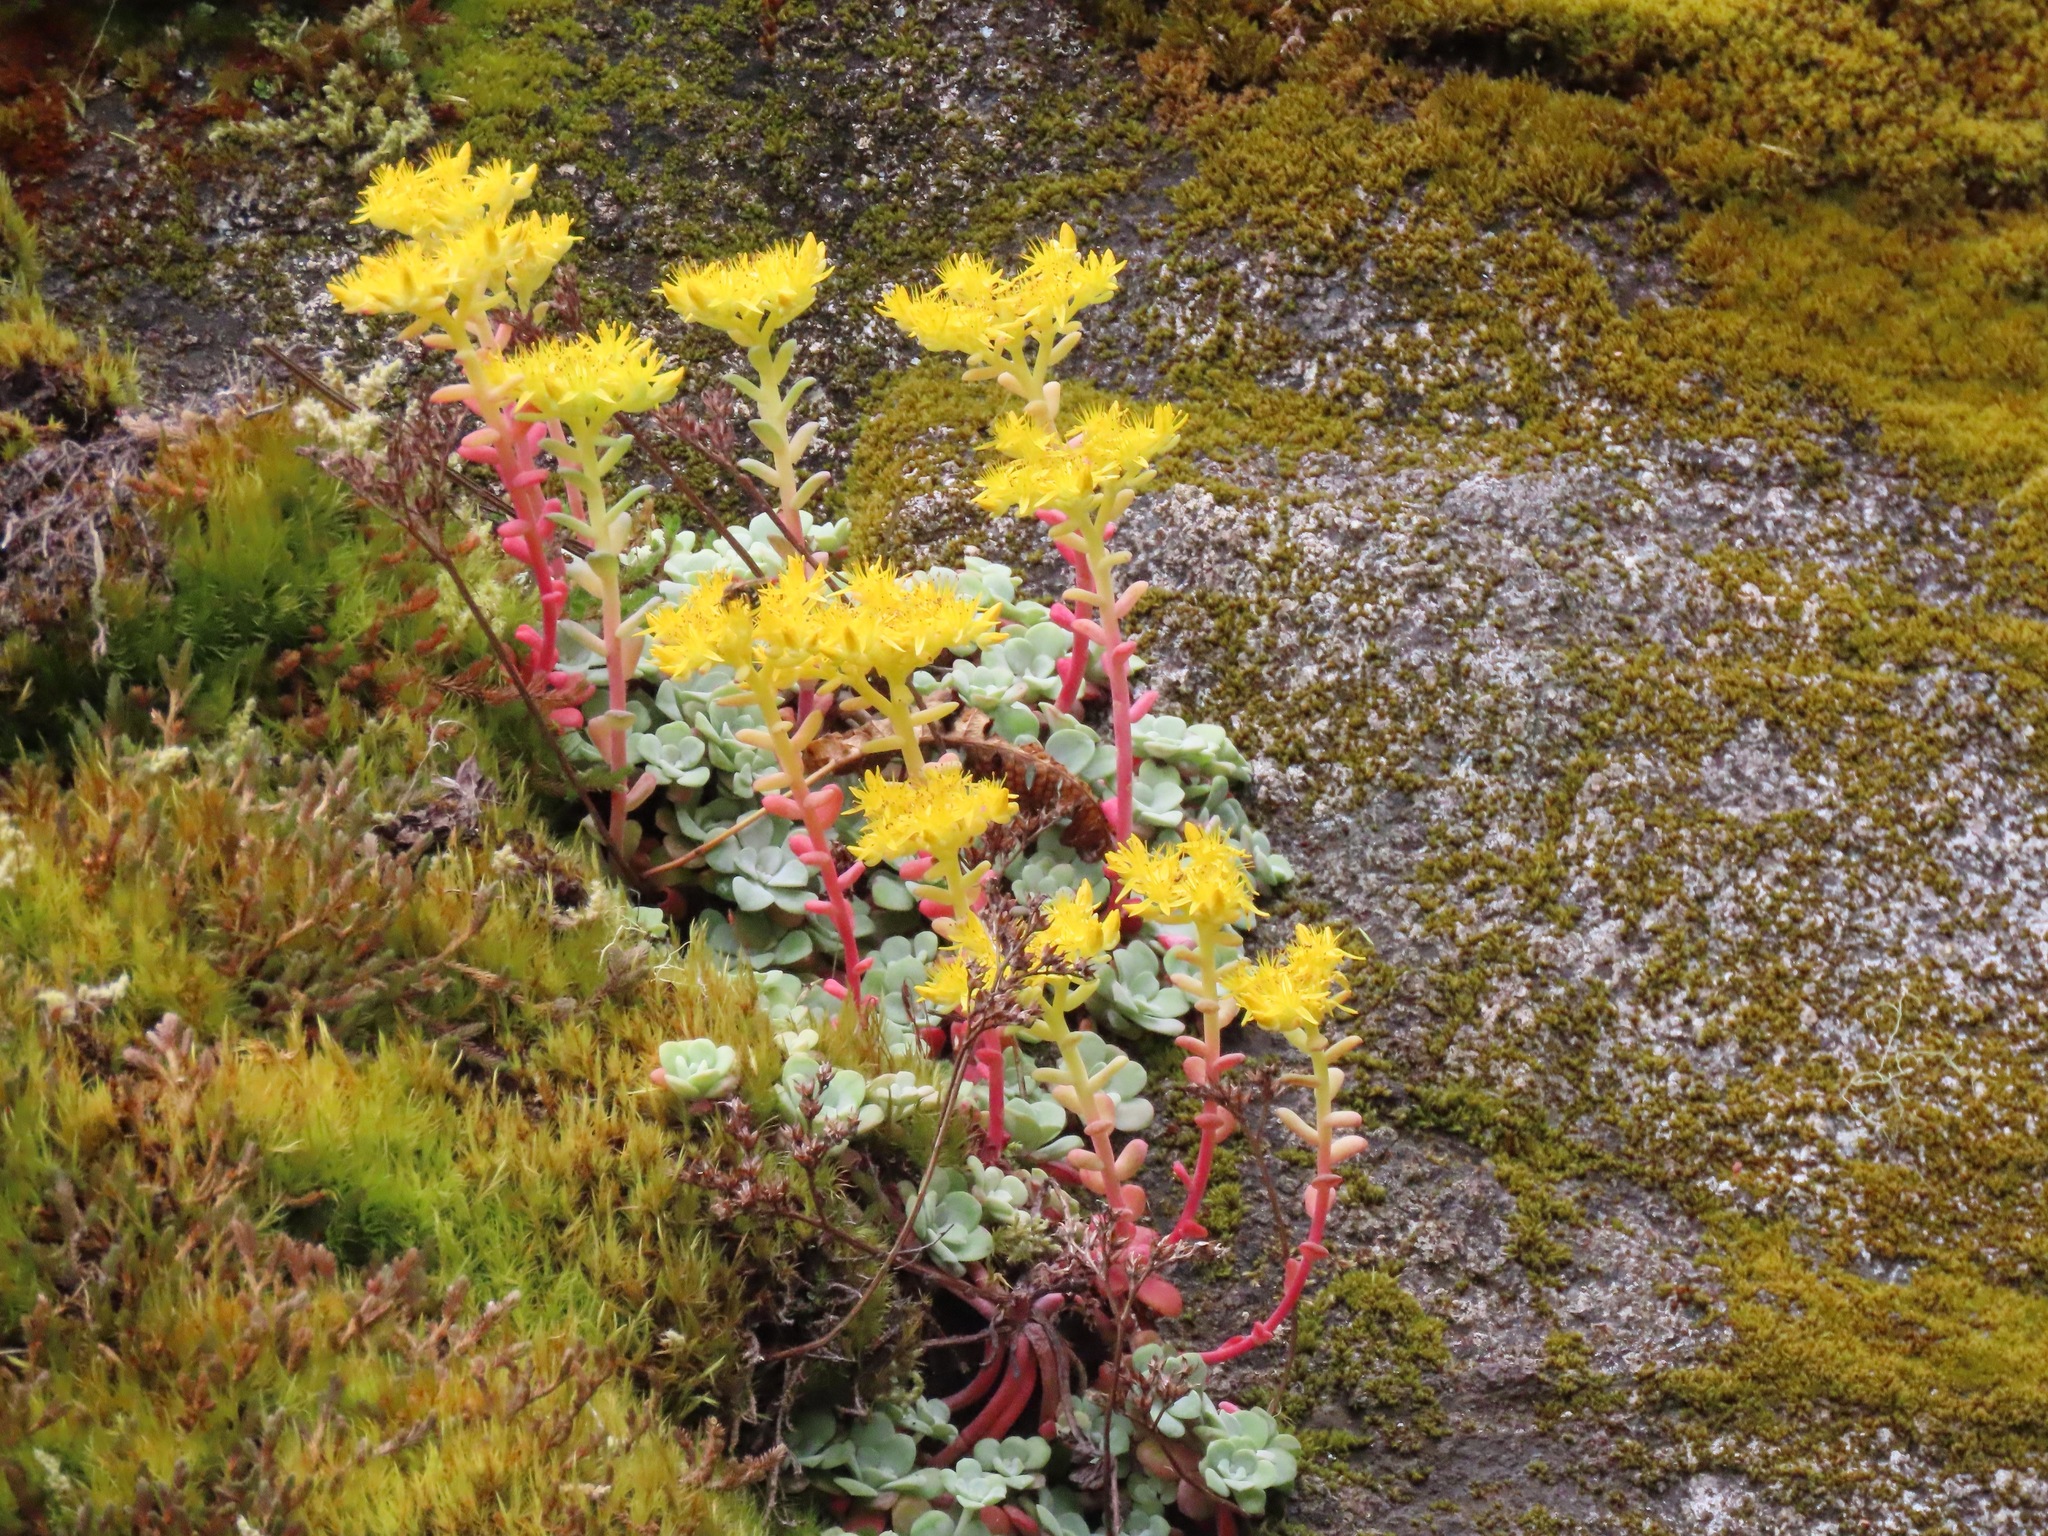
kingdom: Plantae
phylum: Tracheophyta
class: Magnoliopsida
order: Saxifragales
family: Crassulaceae
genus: Sedum
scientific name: Sedum spathulifolium
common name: Colorado stonecrop
